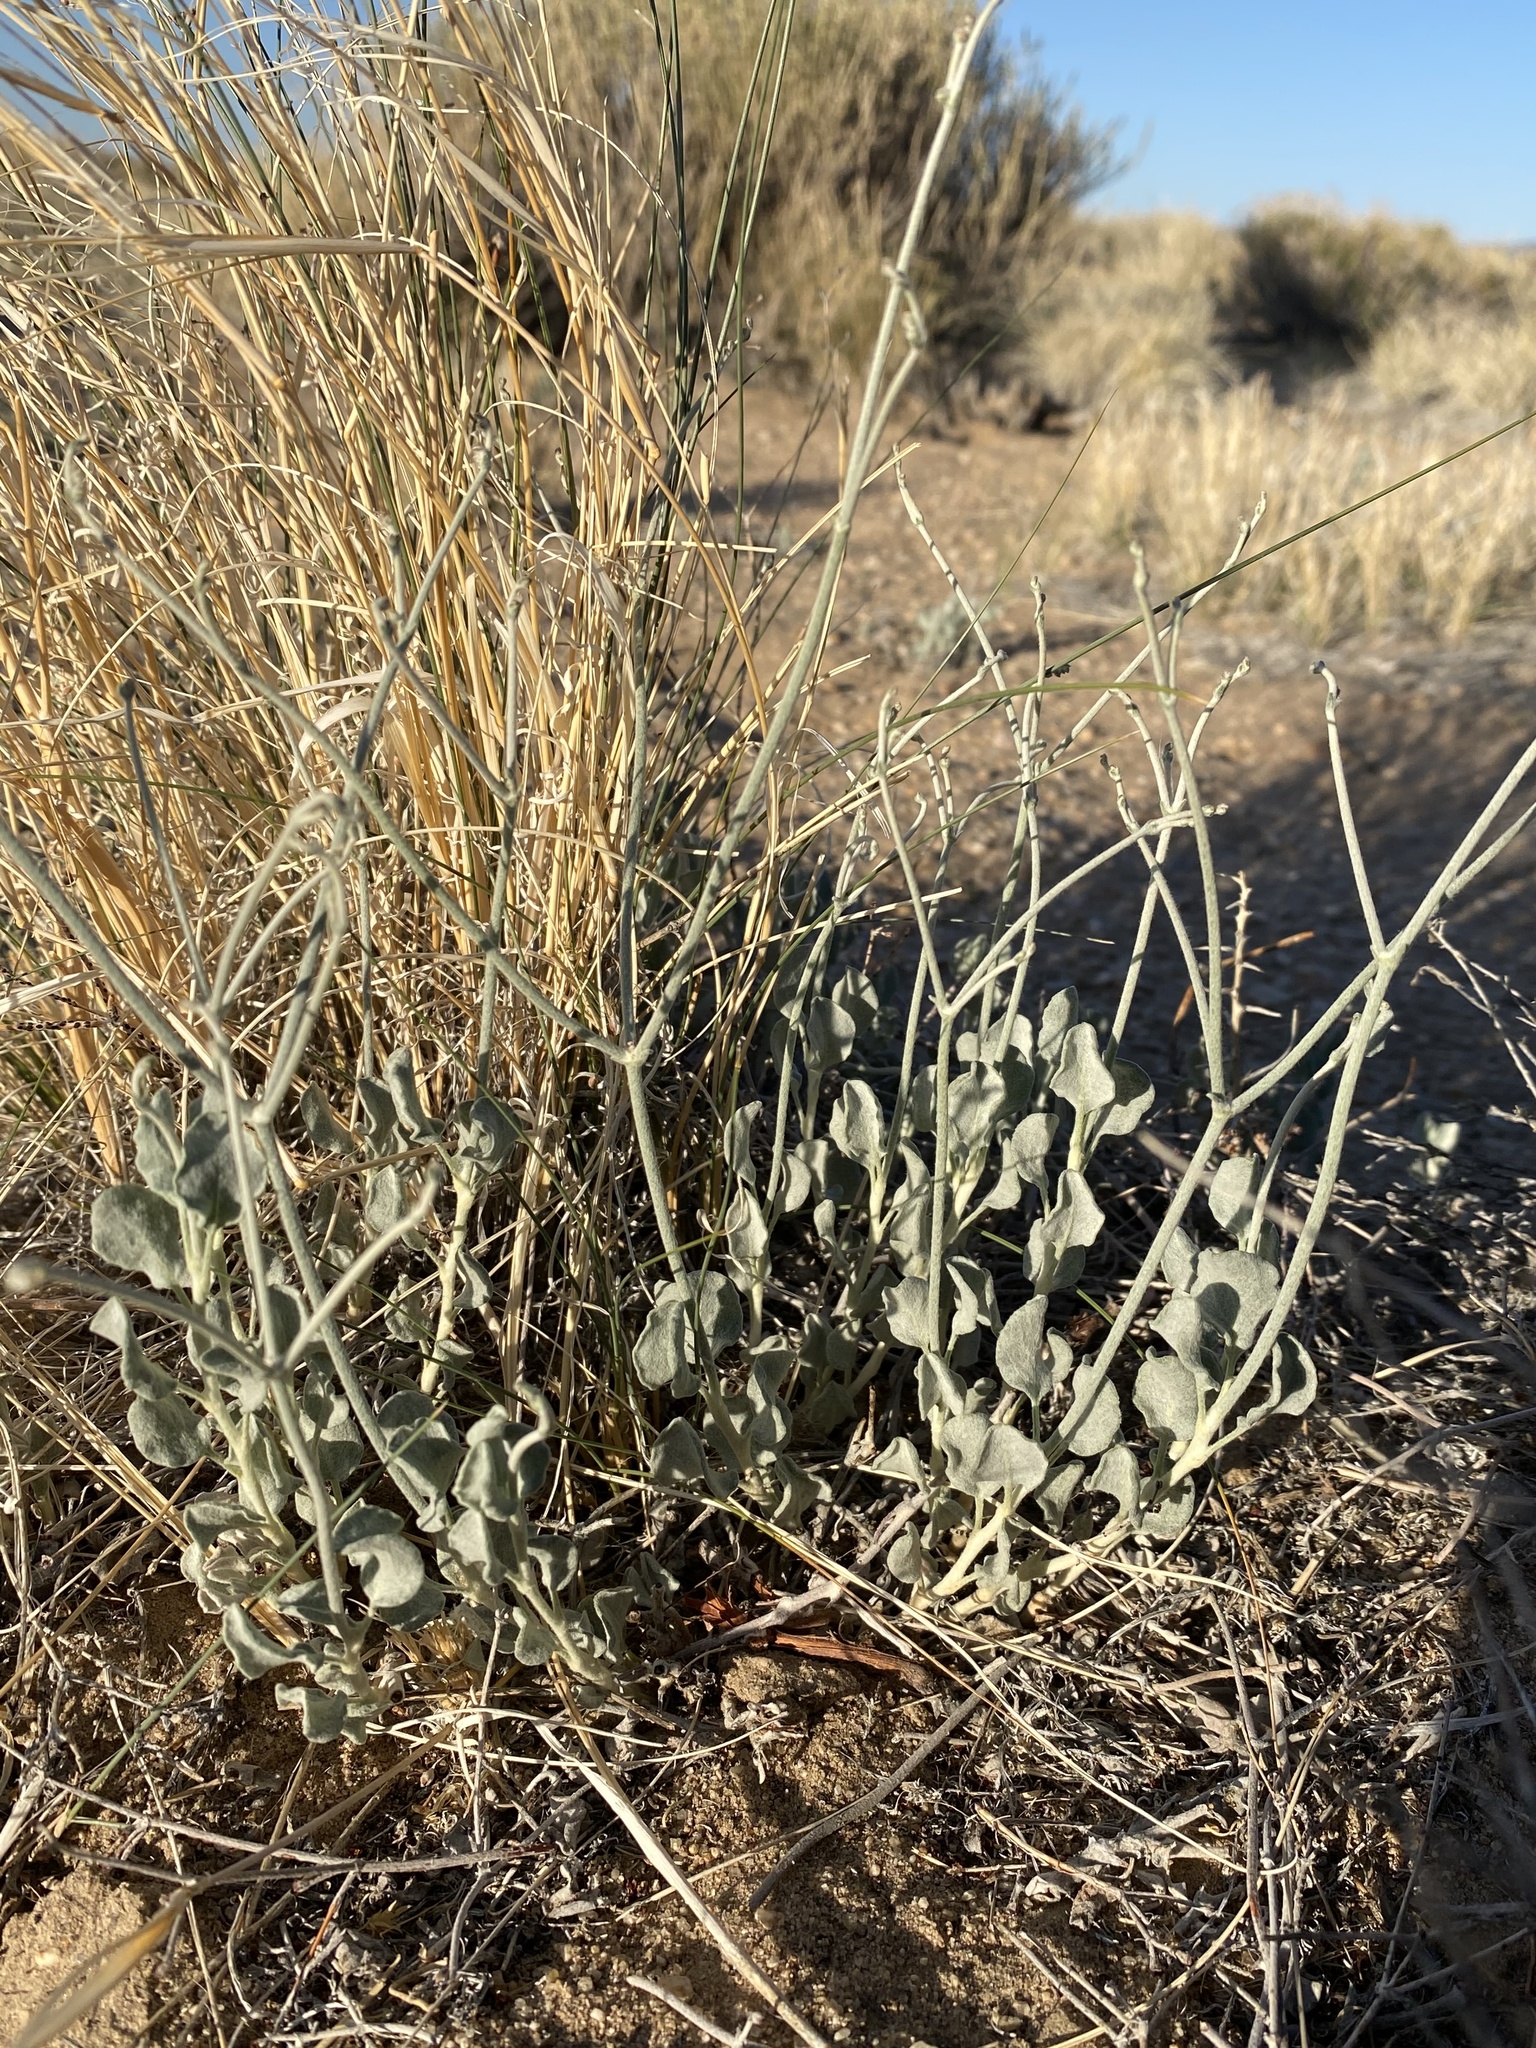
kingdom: Plantae
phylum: Tracheophyta
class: Magnoliopsida
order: Caryophyllales
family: Polygonaceae
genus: Eriogonum
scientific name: Eriogonum nummulare
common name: Kearney wild buckwheat
